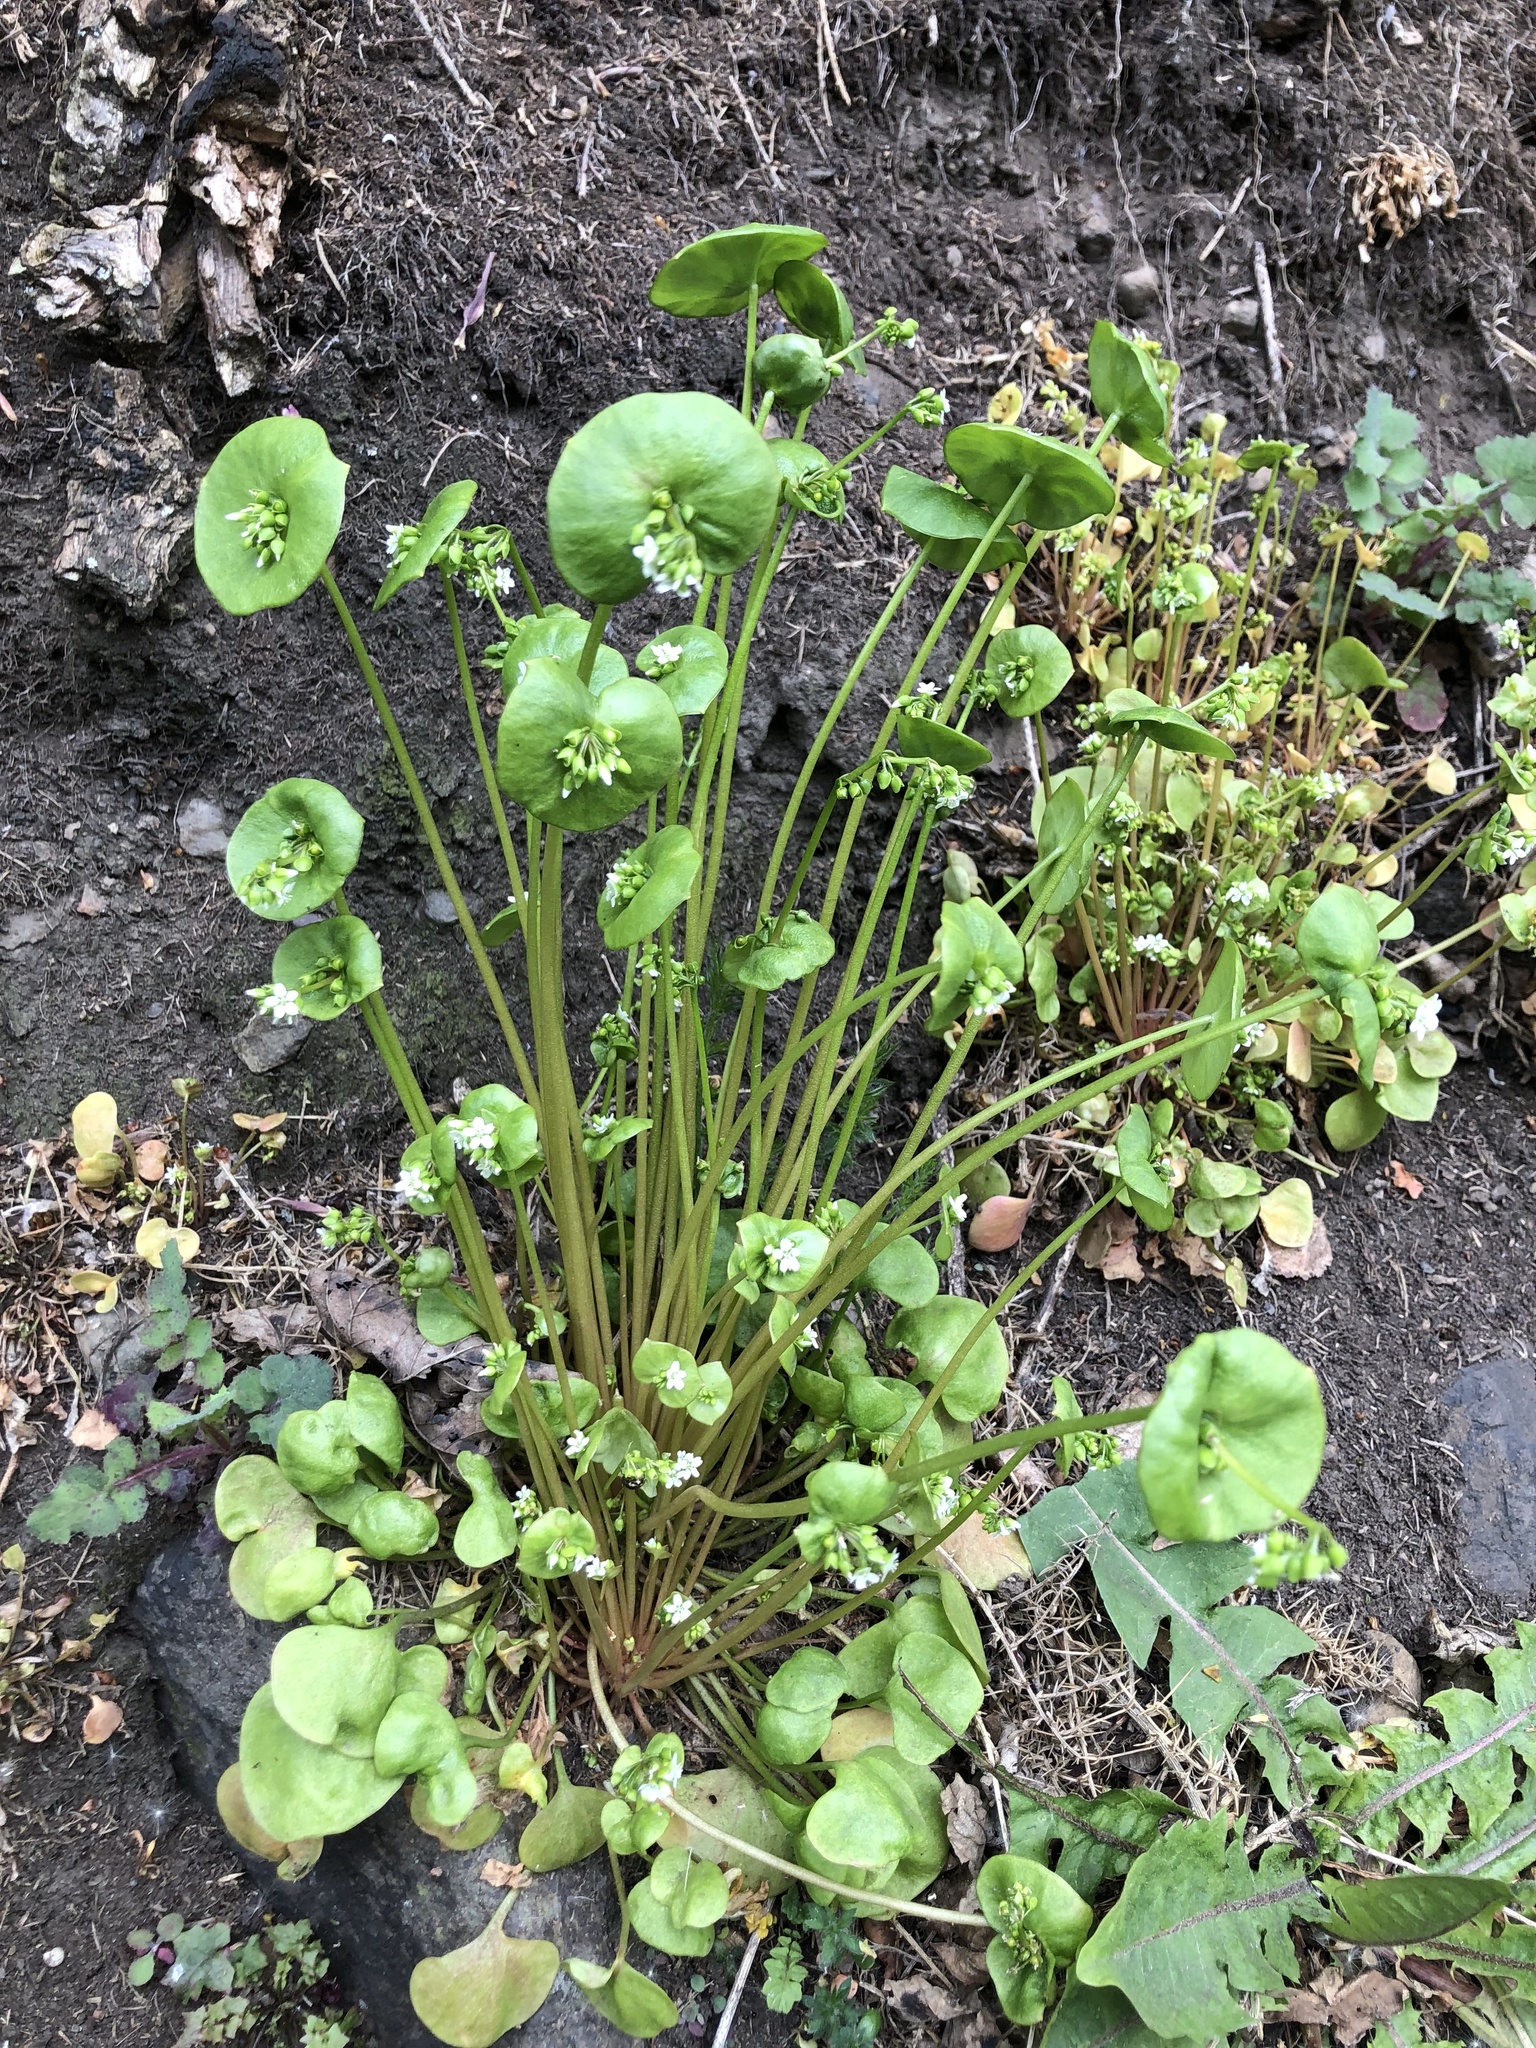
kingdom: Plantae
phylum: Tracheophyta
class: Magnoliopsida
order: Caryophyllales
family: Montiaceae
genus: Claytonia
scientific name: Claytonia perfoliata
